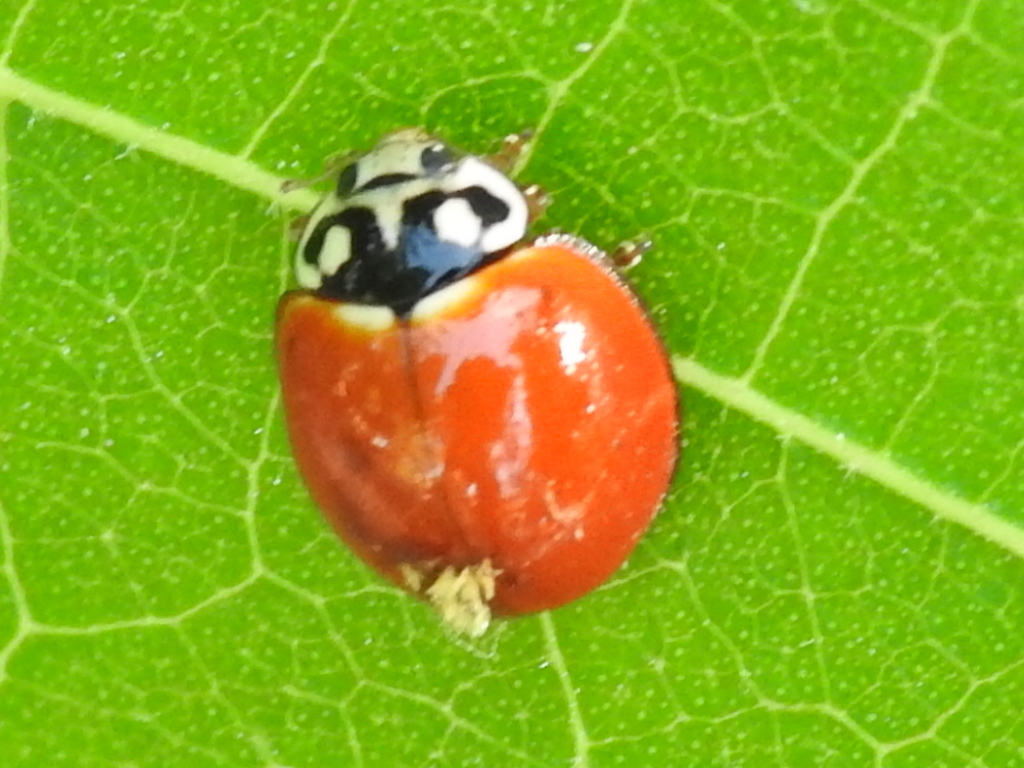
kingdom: Animalia
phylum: Arthropoda
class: Insecta
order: Coleoptera
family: Coccinellidae
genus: Cycloneda
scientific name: Cycloneda sanguinea
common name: Ladybird beetle
